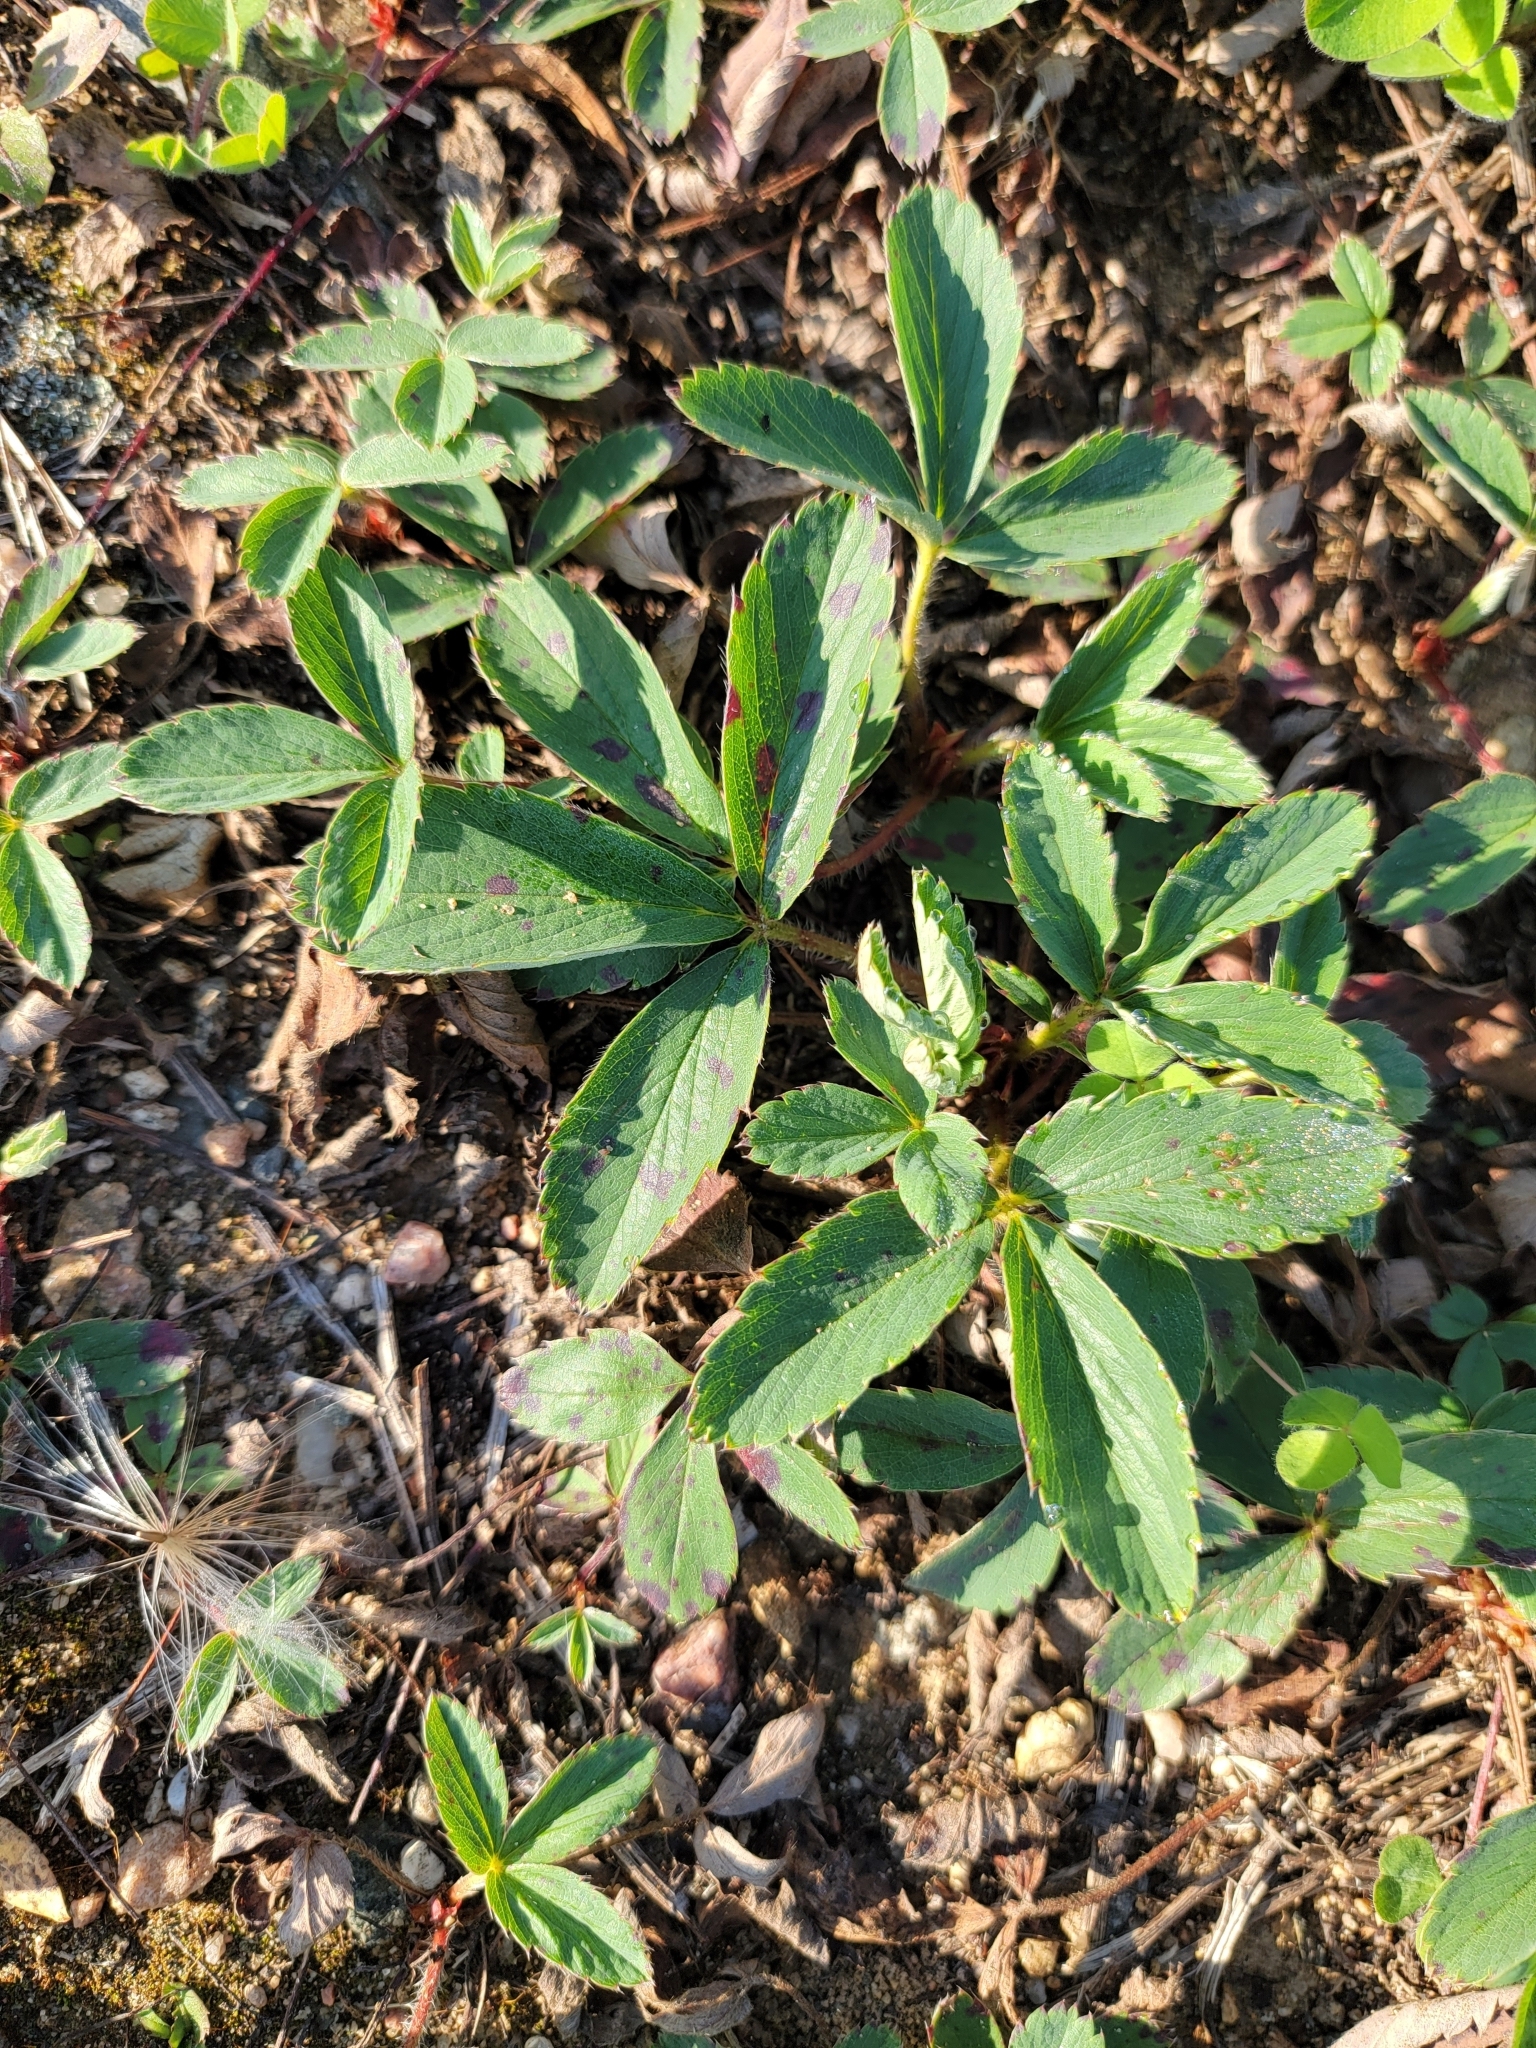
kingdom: Plantae
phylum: Tracheophyta
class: Magnoliopsida
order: Rosales
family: Rosaceae
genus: Fragaria
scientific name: Fragaria virginiana
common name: Thickleaved wild strawberry
